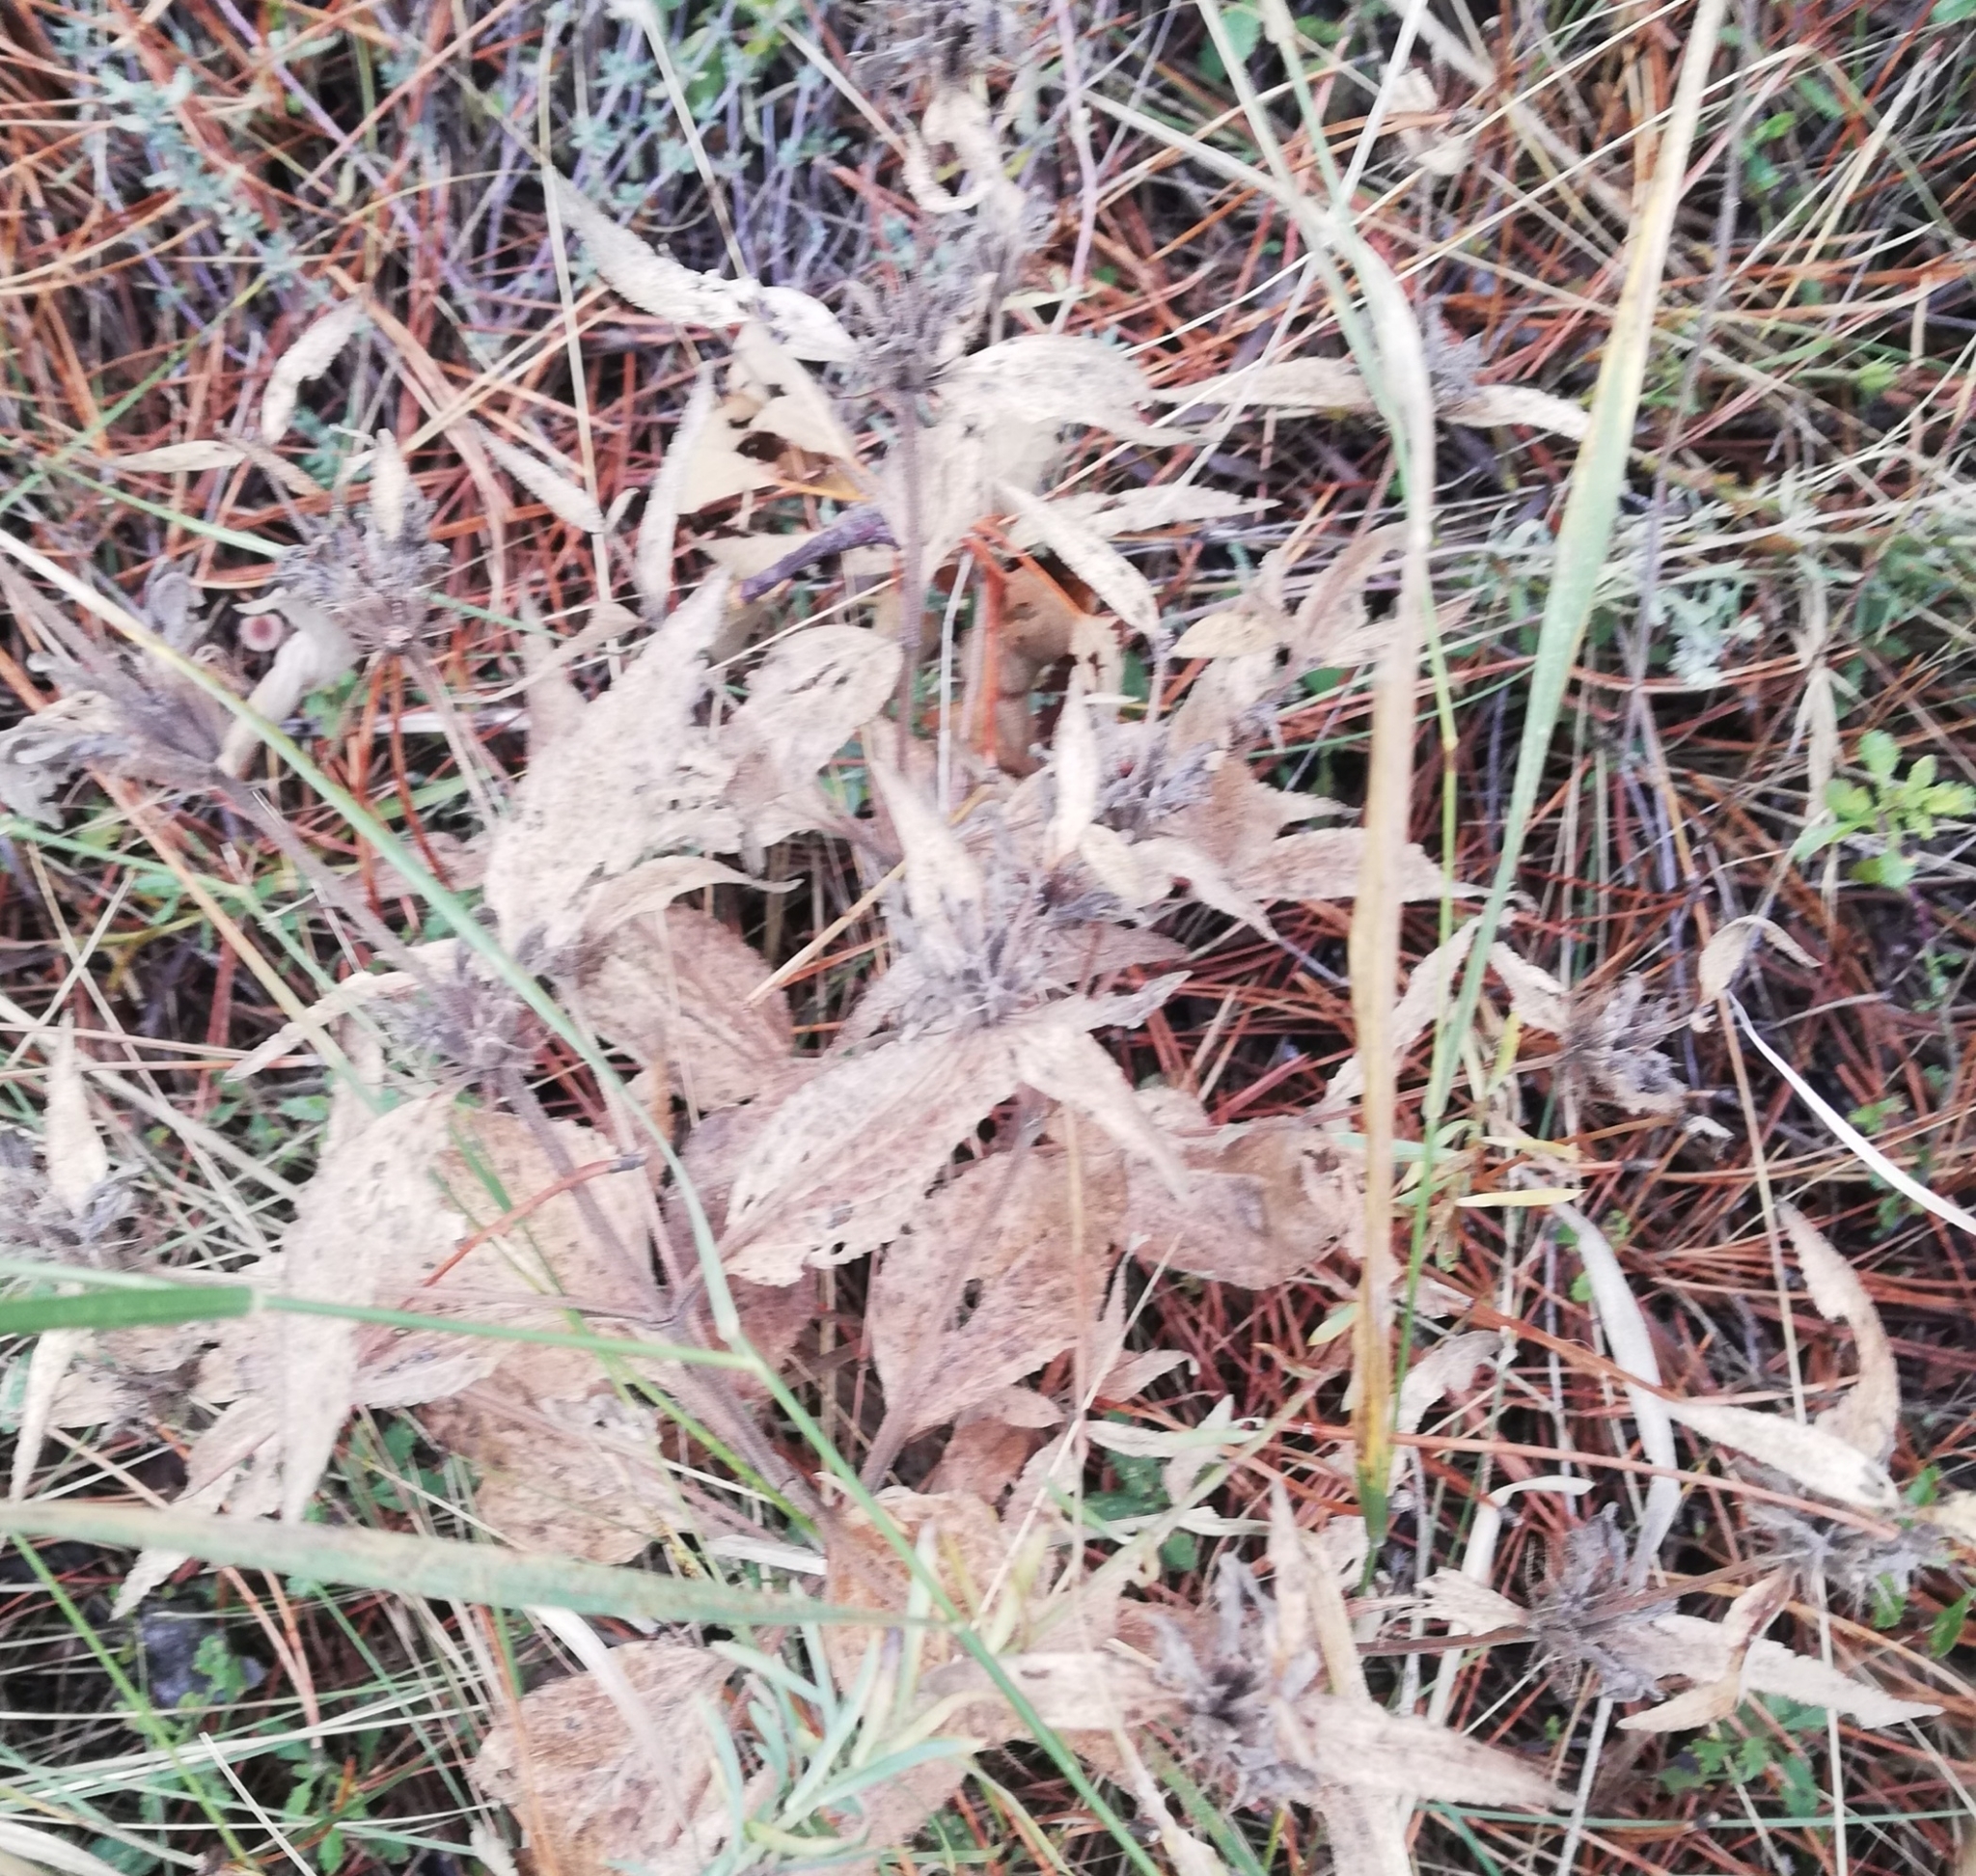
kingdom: Plantae
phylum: Tracheophyta
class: Magnoliopsida
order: Lamiales
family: Lamiaceae
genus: Phlomis
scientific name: Phlomis herba-venti
